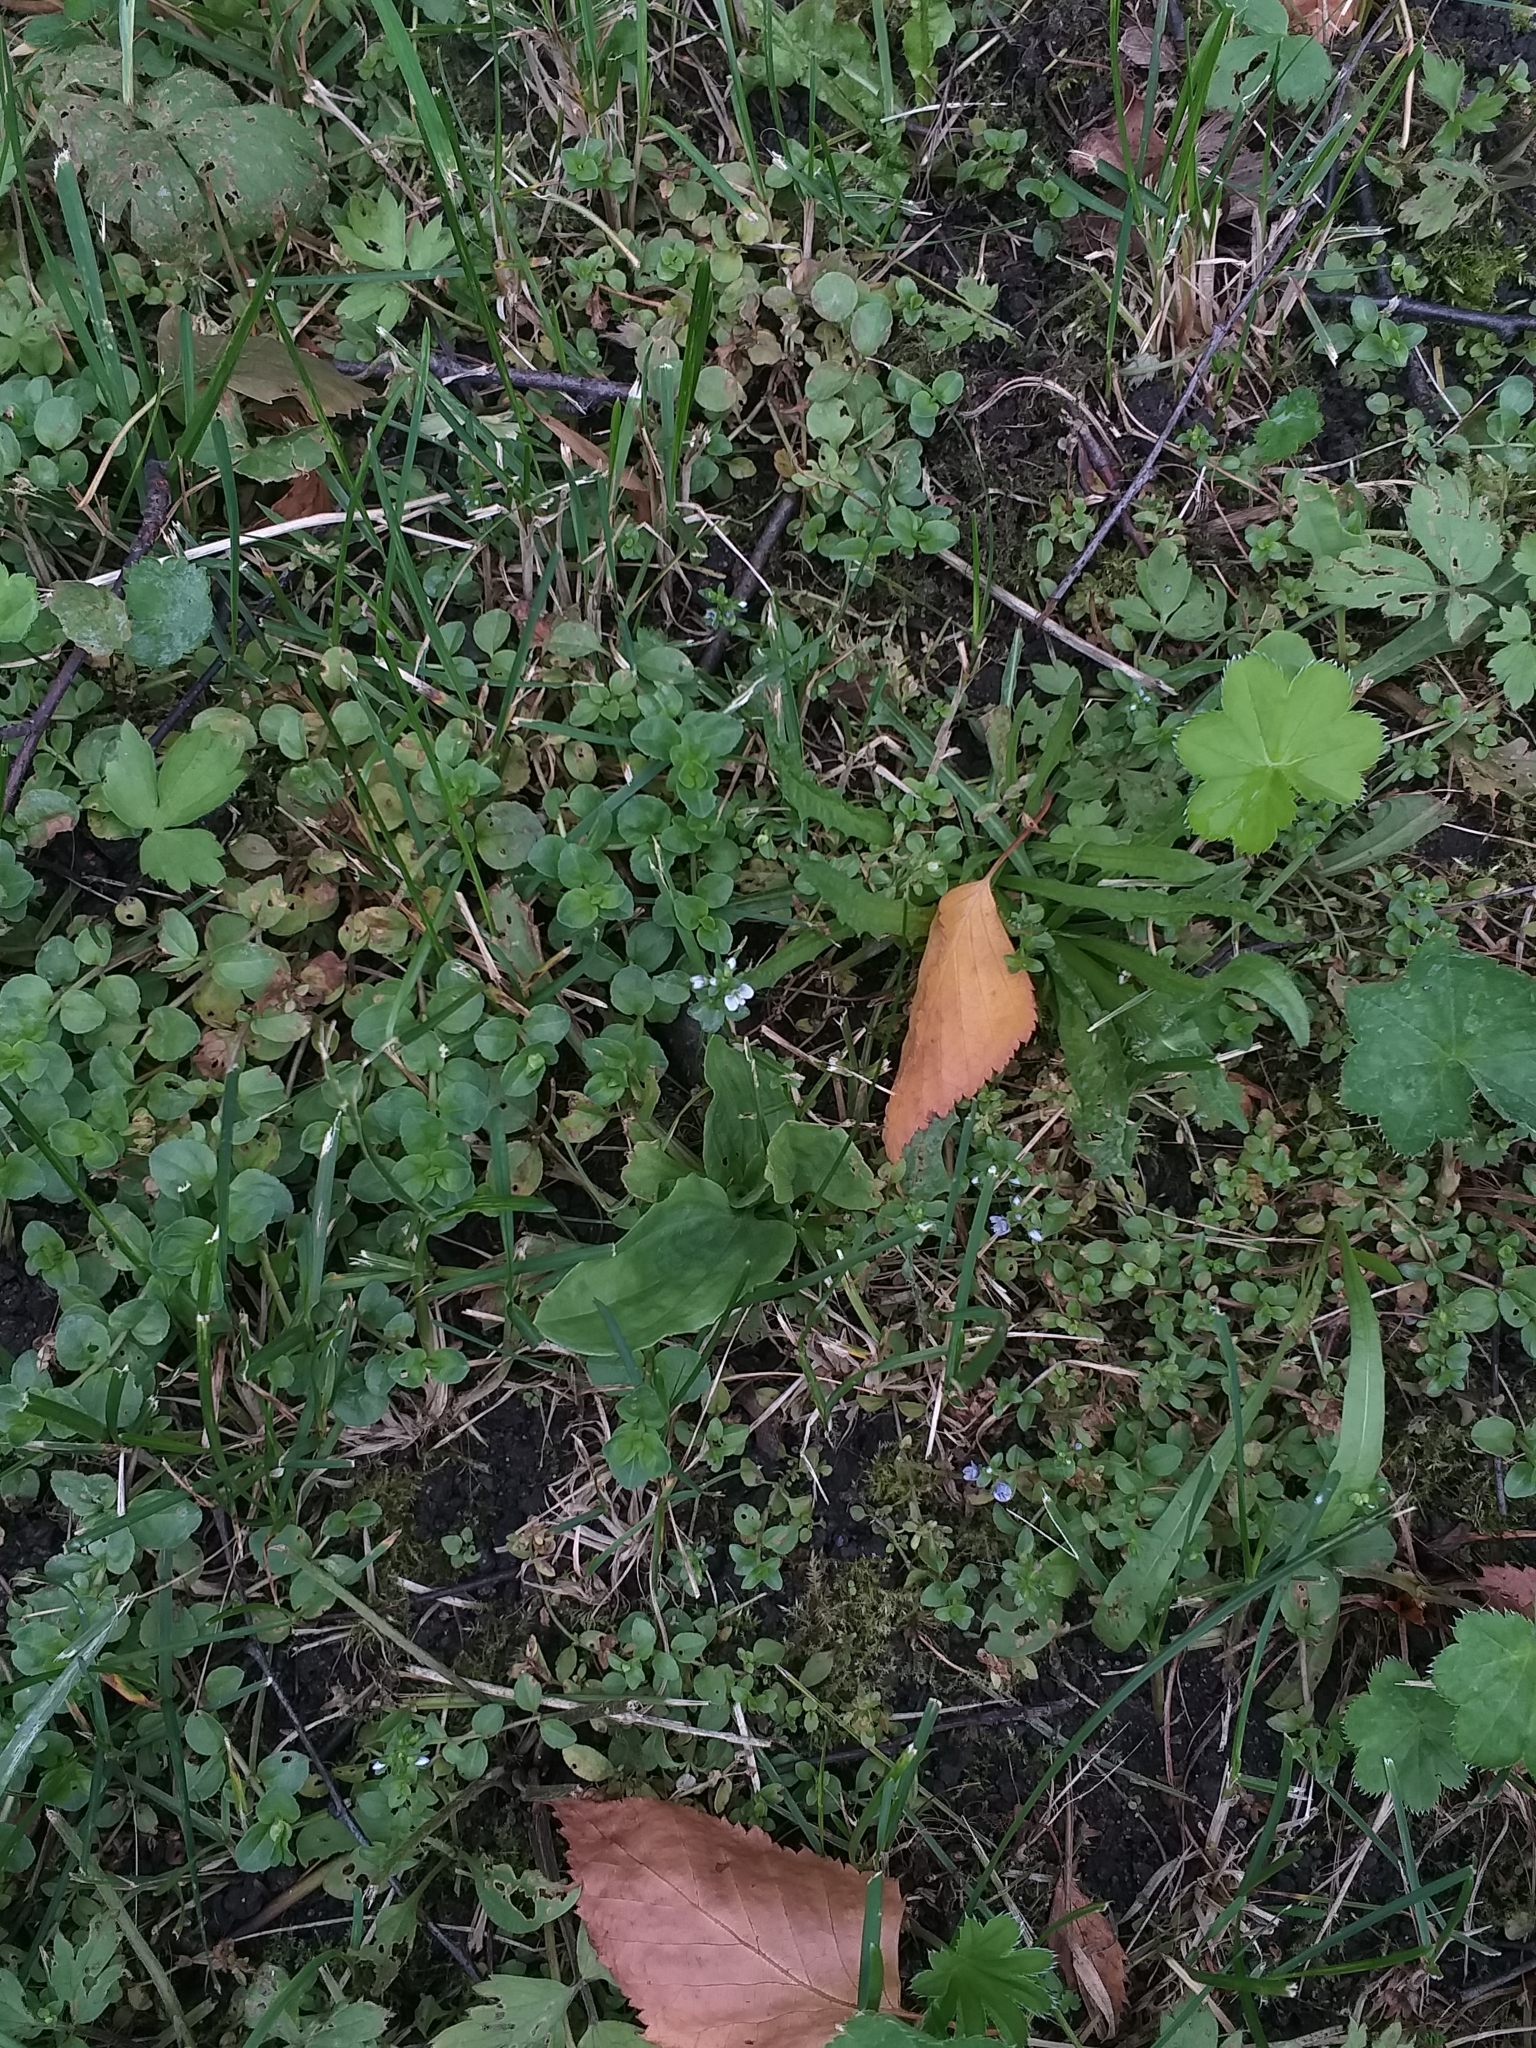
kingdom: Plantae
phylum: Tracheophyta
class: Magnoliopsida
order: Lamiales
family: Plantaginaceae
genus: Veronica
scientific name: Veronica serpyllifolia
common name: Thyme-leaved speedwell
